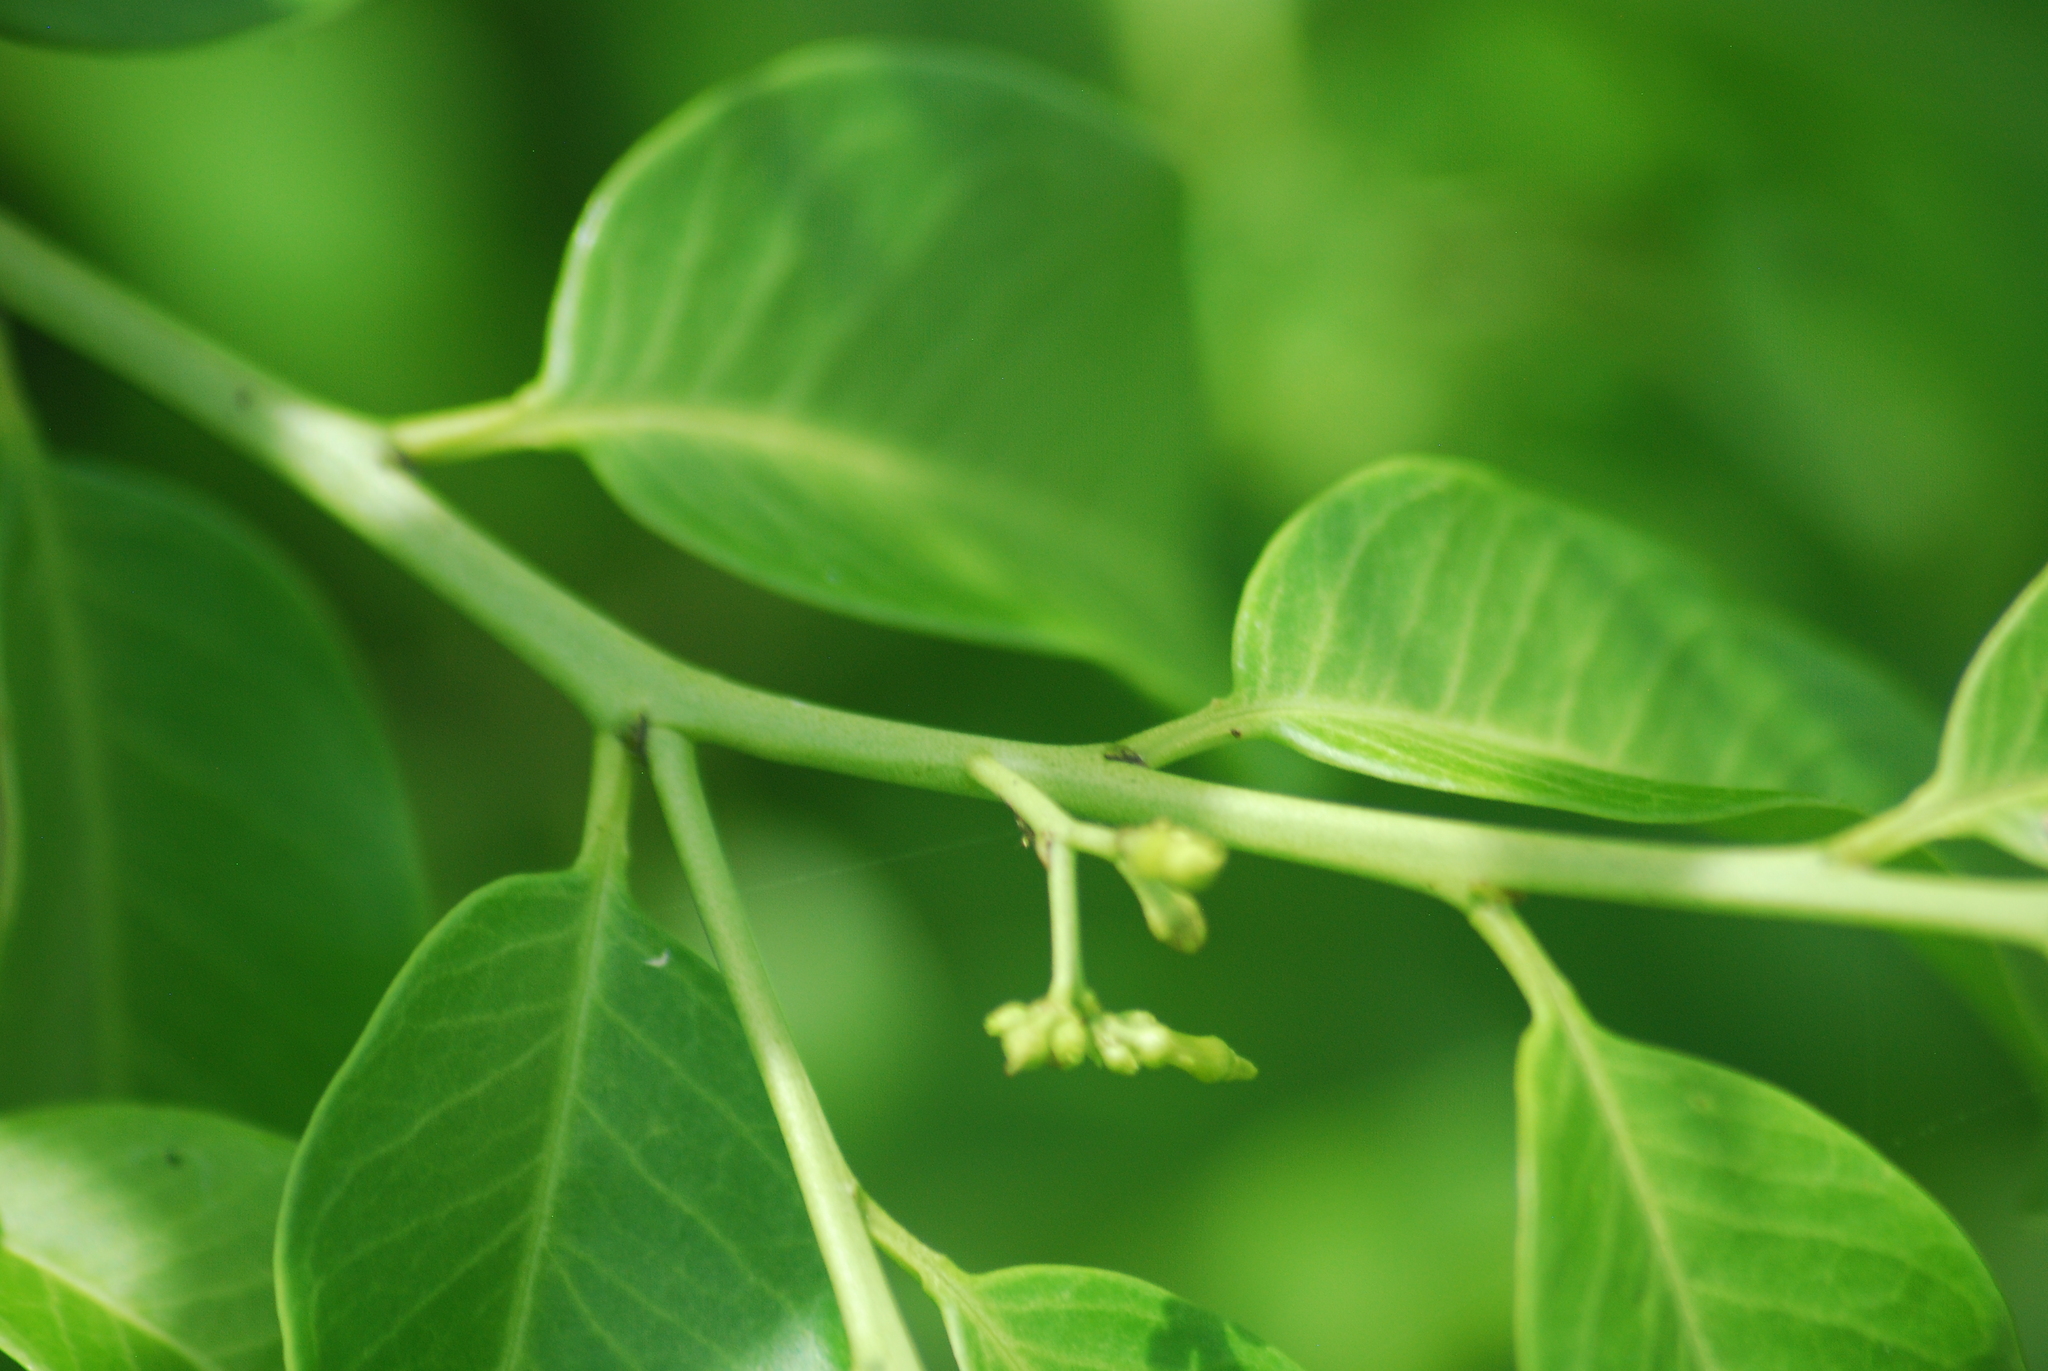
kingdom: Plantae
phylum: Tracheophyta
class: Magnoliopsida
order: Gentianales
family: Apocynaceae
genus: Vallesia
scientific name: Vallesia glabra
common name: Pearlberry
